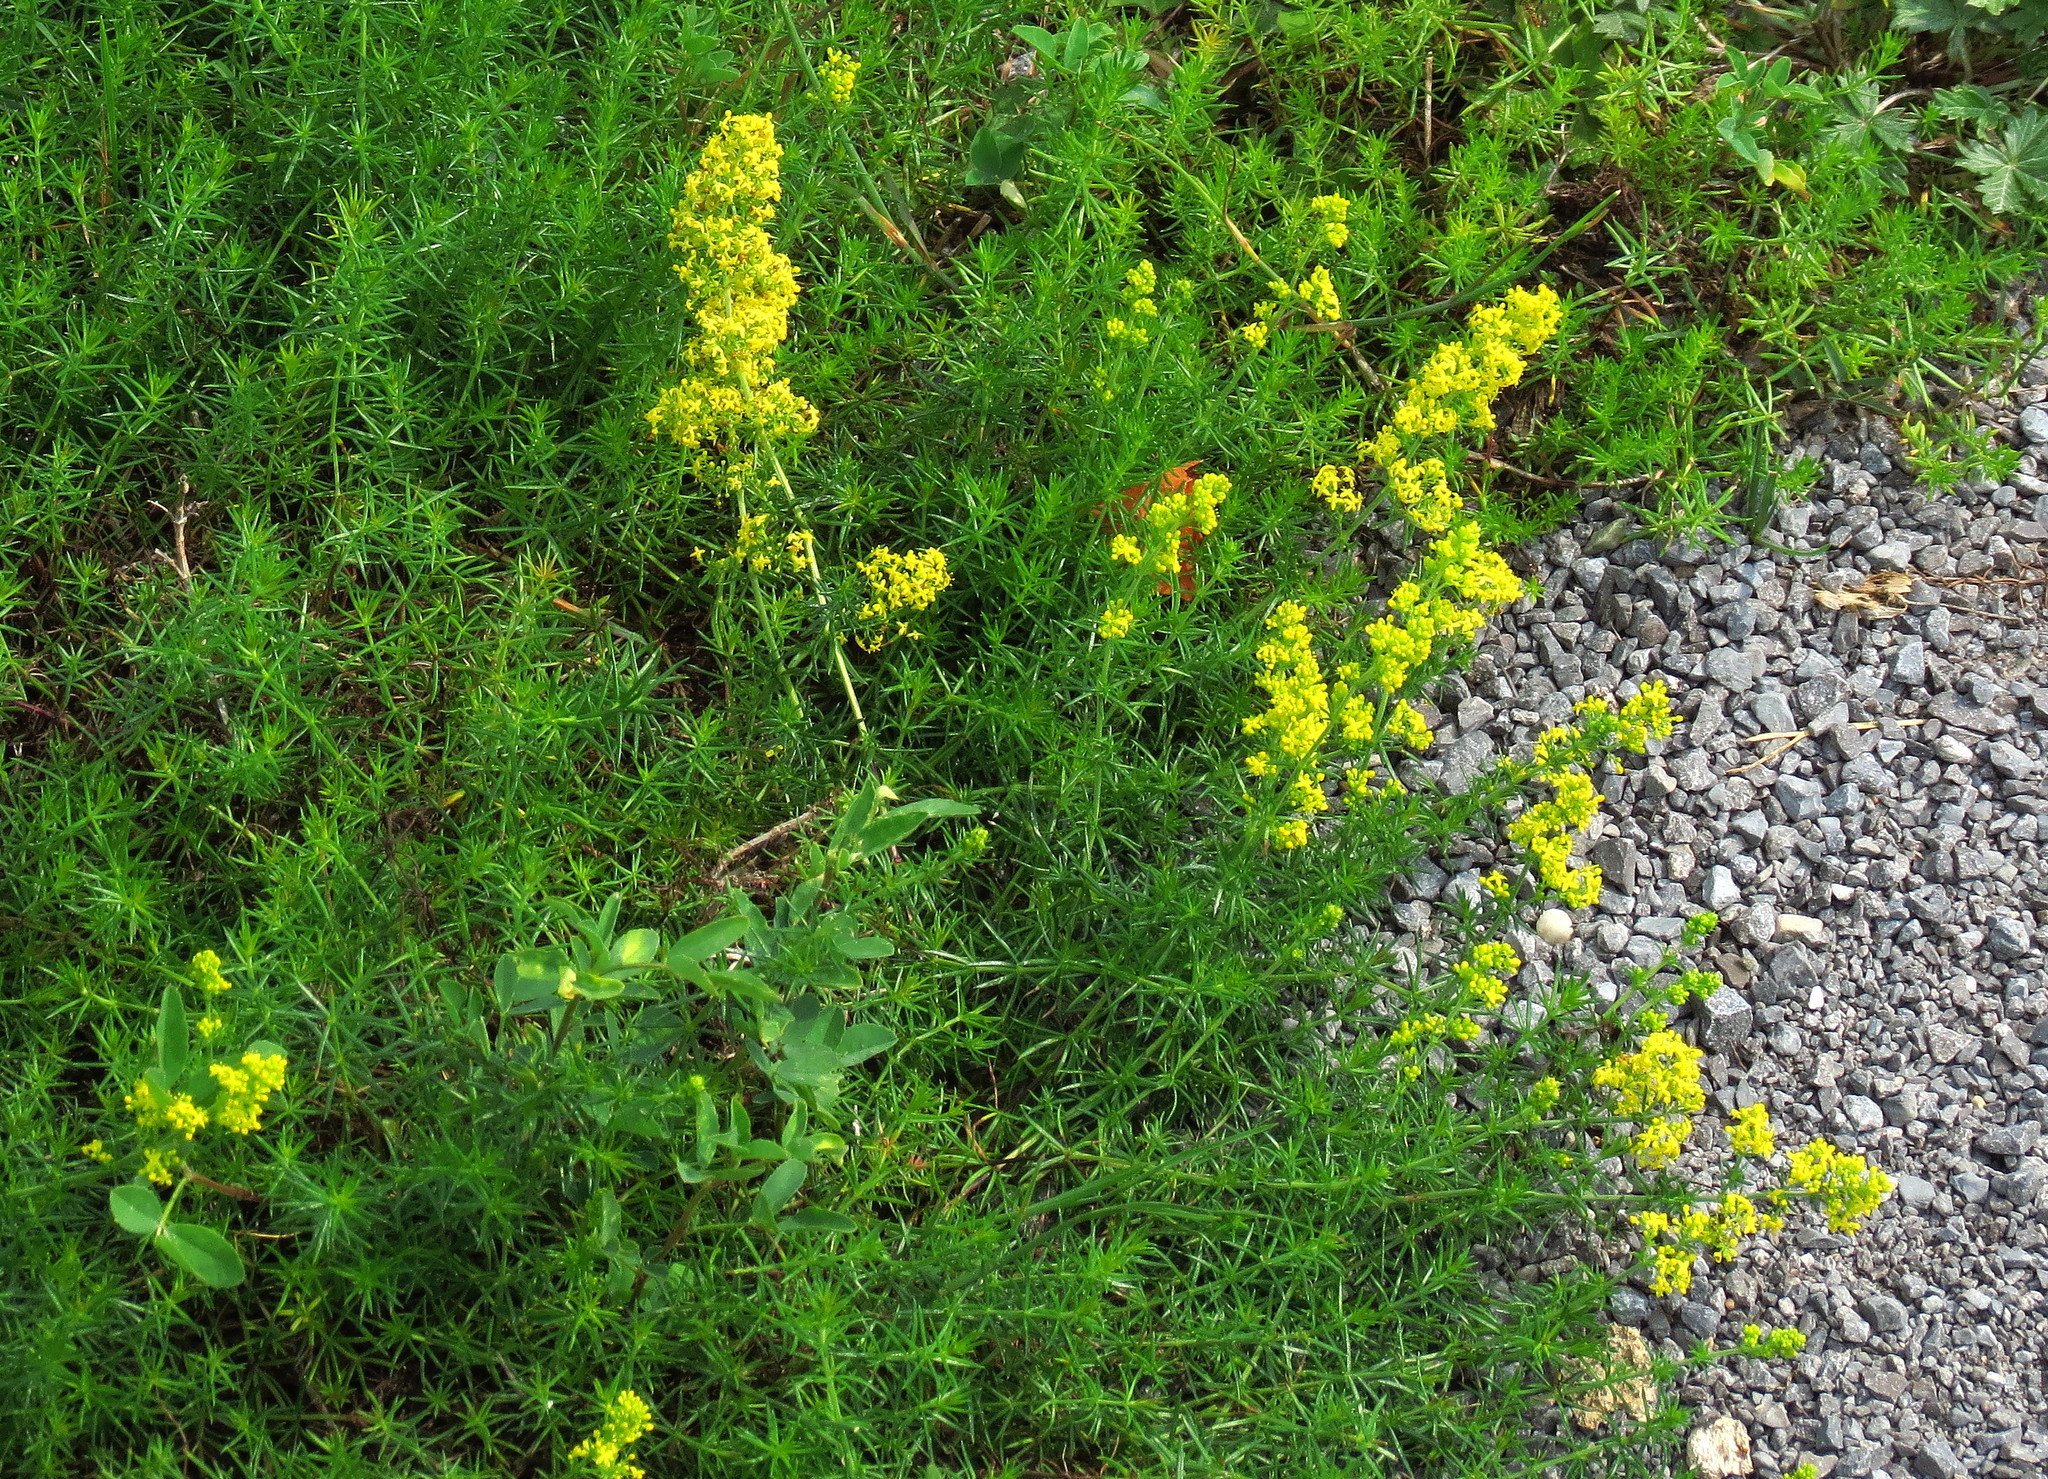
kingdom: Plantae
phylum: Tracheophyta
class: Magnoliopsida
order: Gentianales
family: Rubiaceae
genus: Galium
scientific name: Galium verum
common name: Lady's bedstraw
